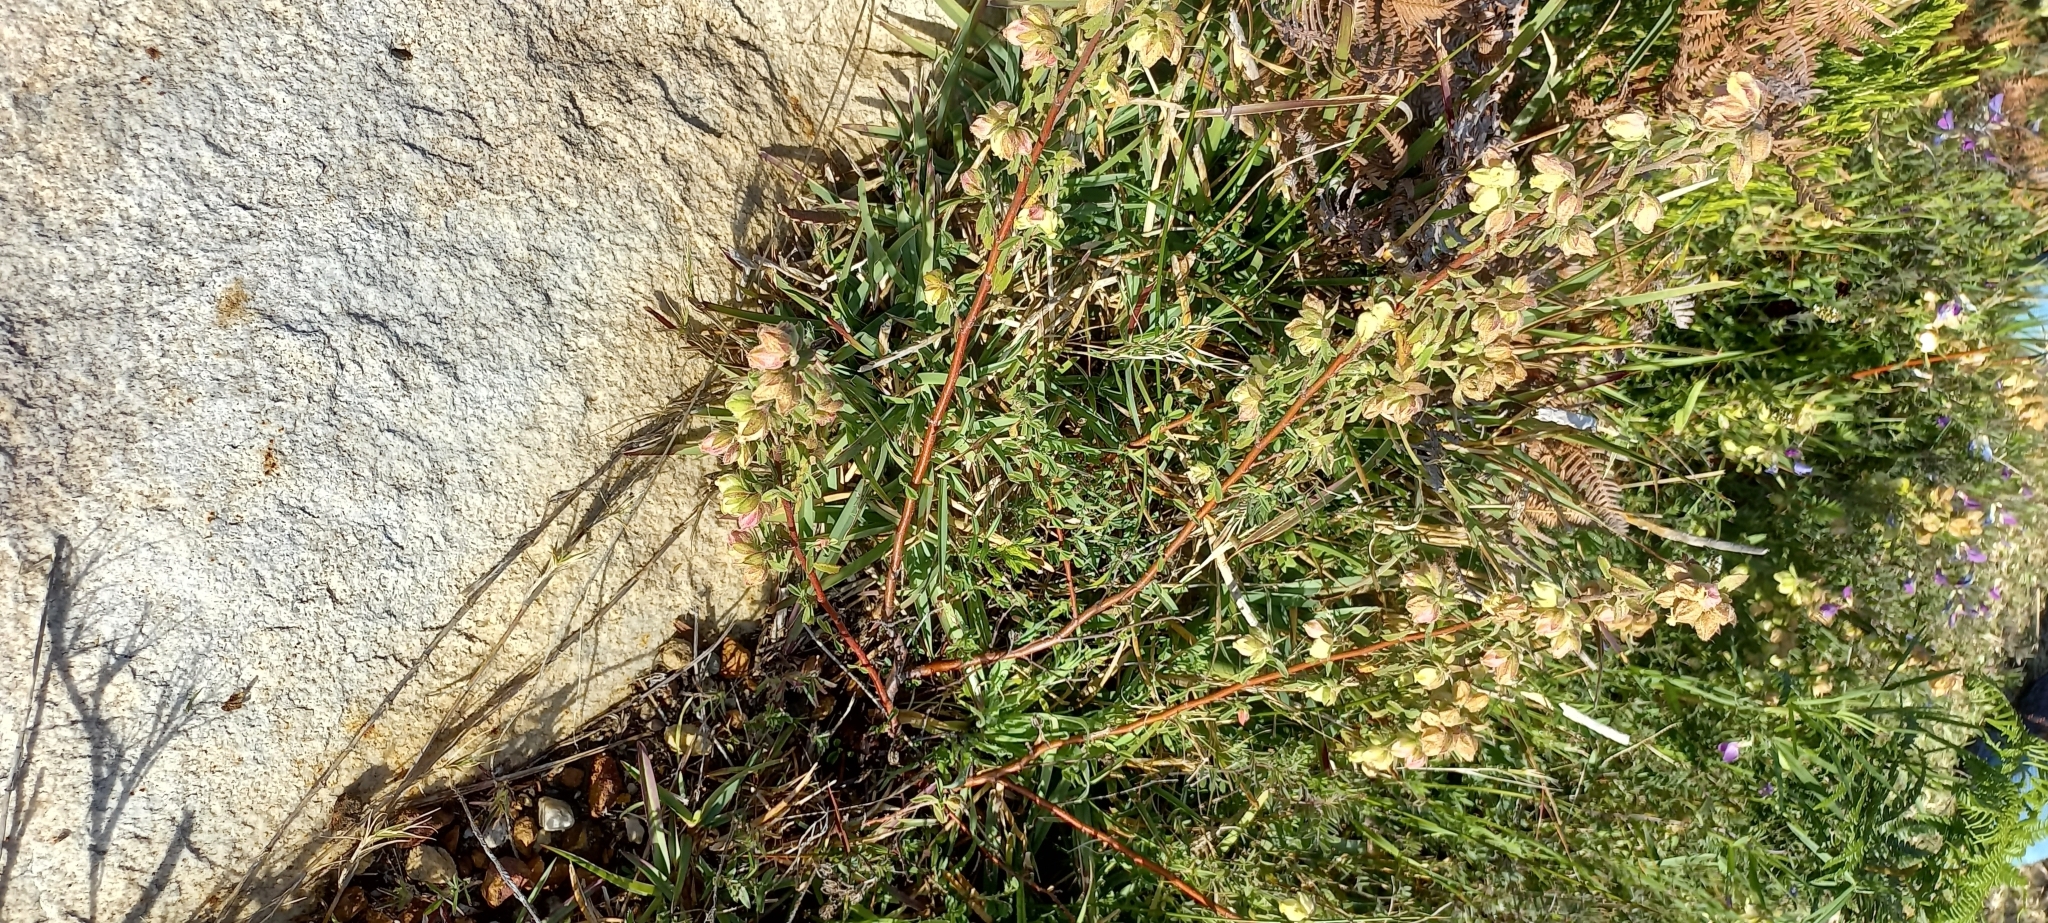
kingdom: Plantae
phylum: Tracheophyta
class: Magnoliopsida
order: Malvales
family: Malvaceae
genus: Hermannia
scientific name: Hermannia hyssopifolia
